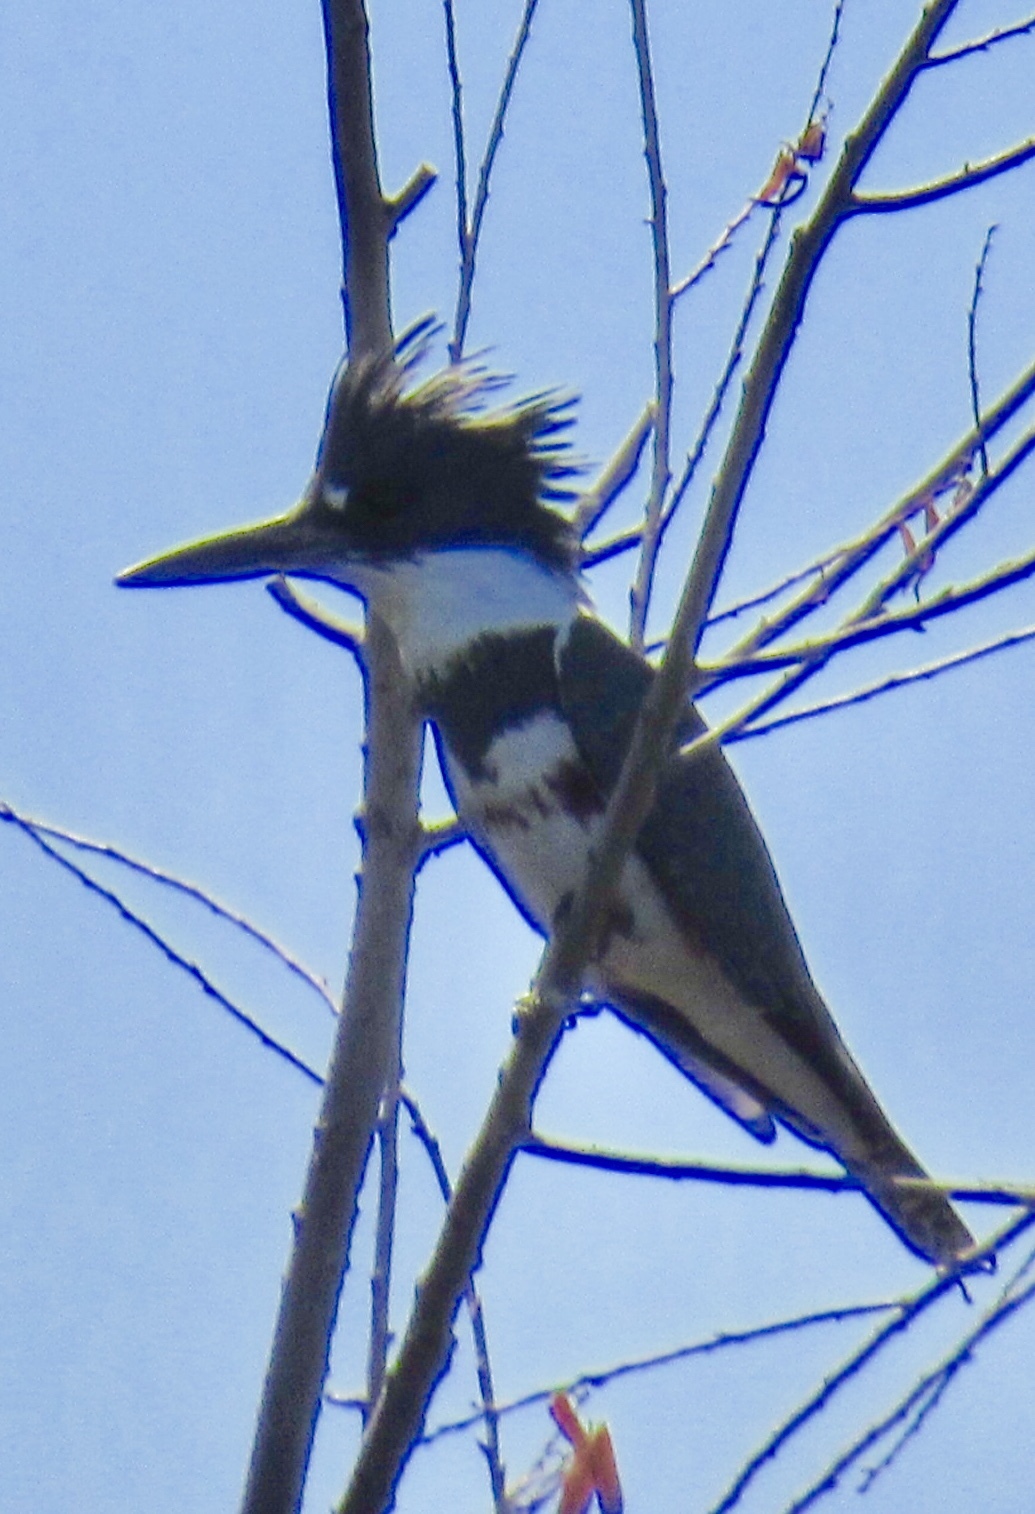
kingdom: Animalia
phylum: Chordata
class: Aves
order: Coraciiformes
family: Alcedinidae
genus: Megaceryle
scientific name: Megaceryle alcyon
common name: Belted kingfisher
